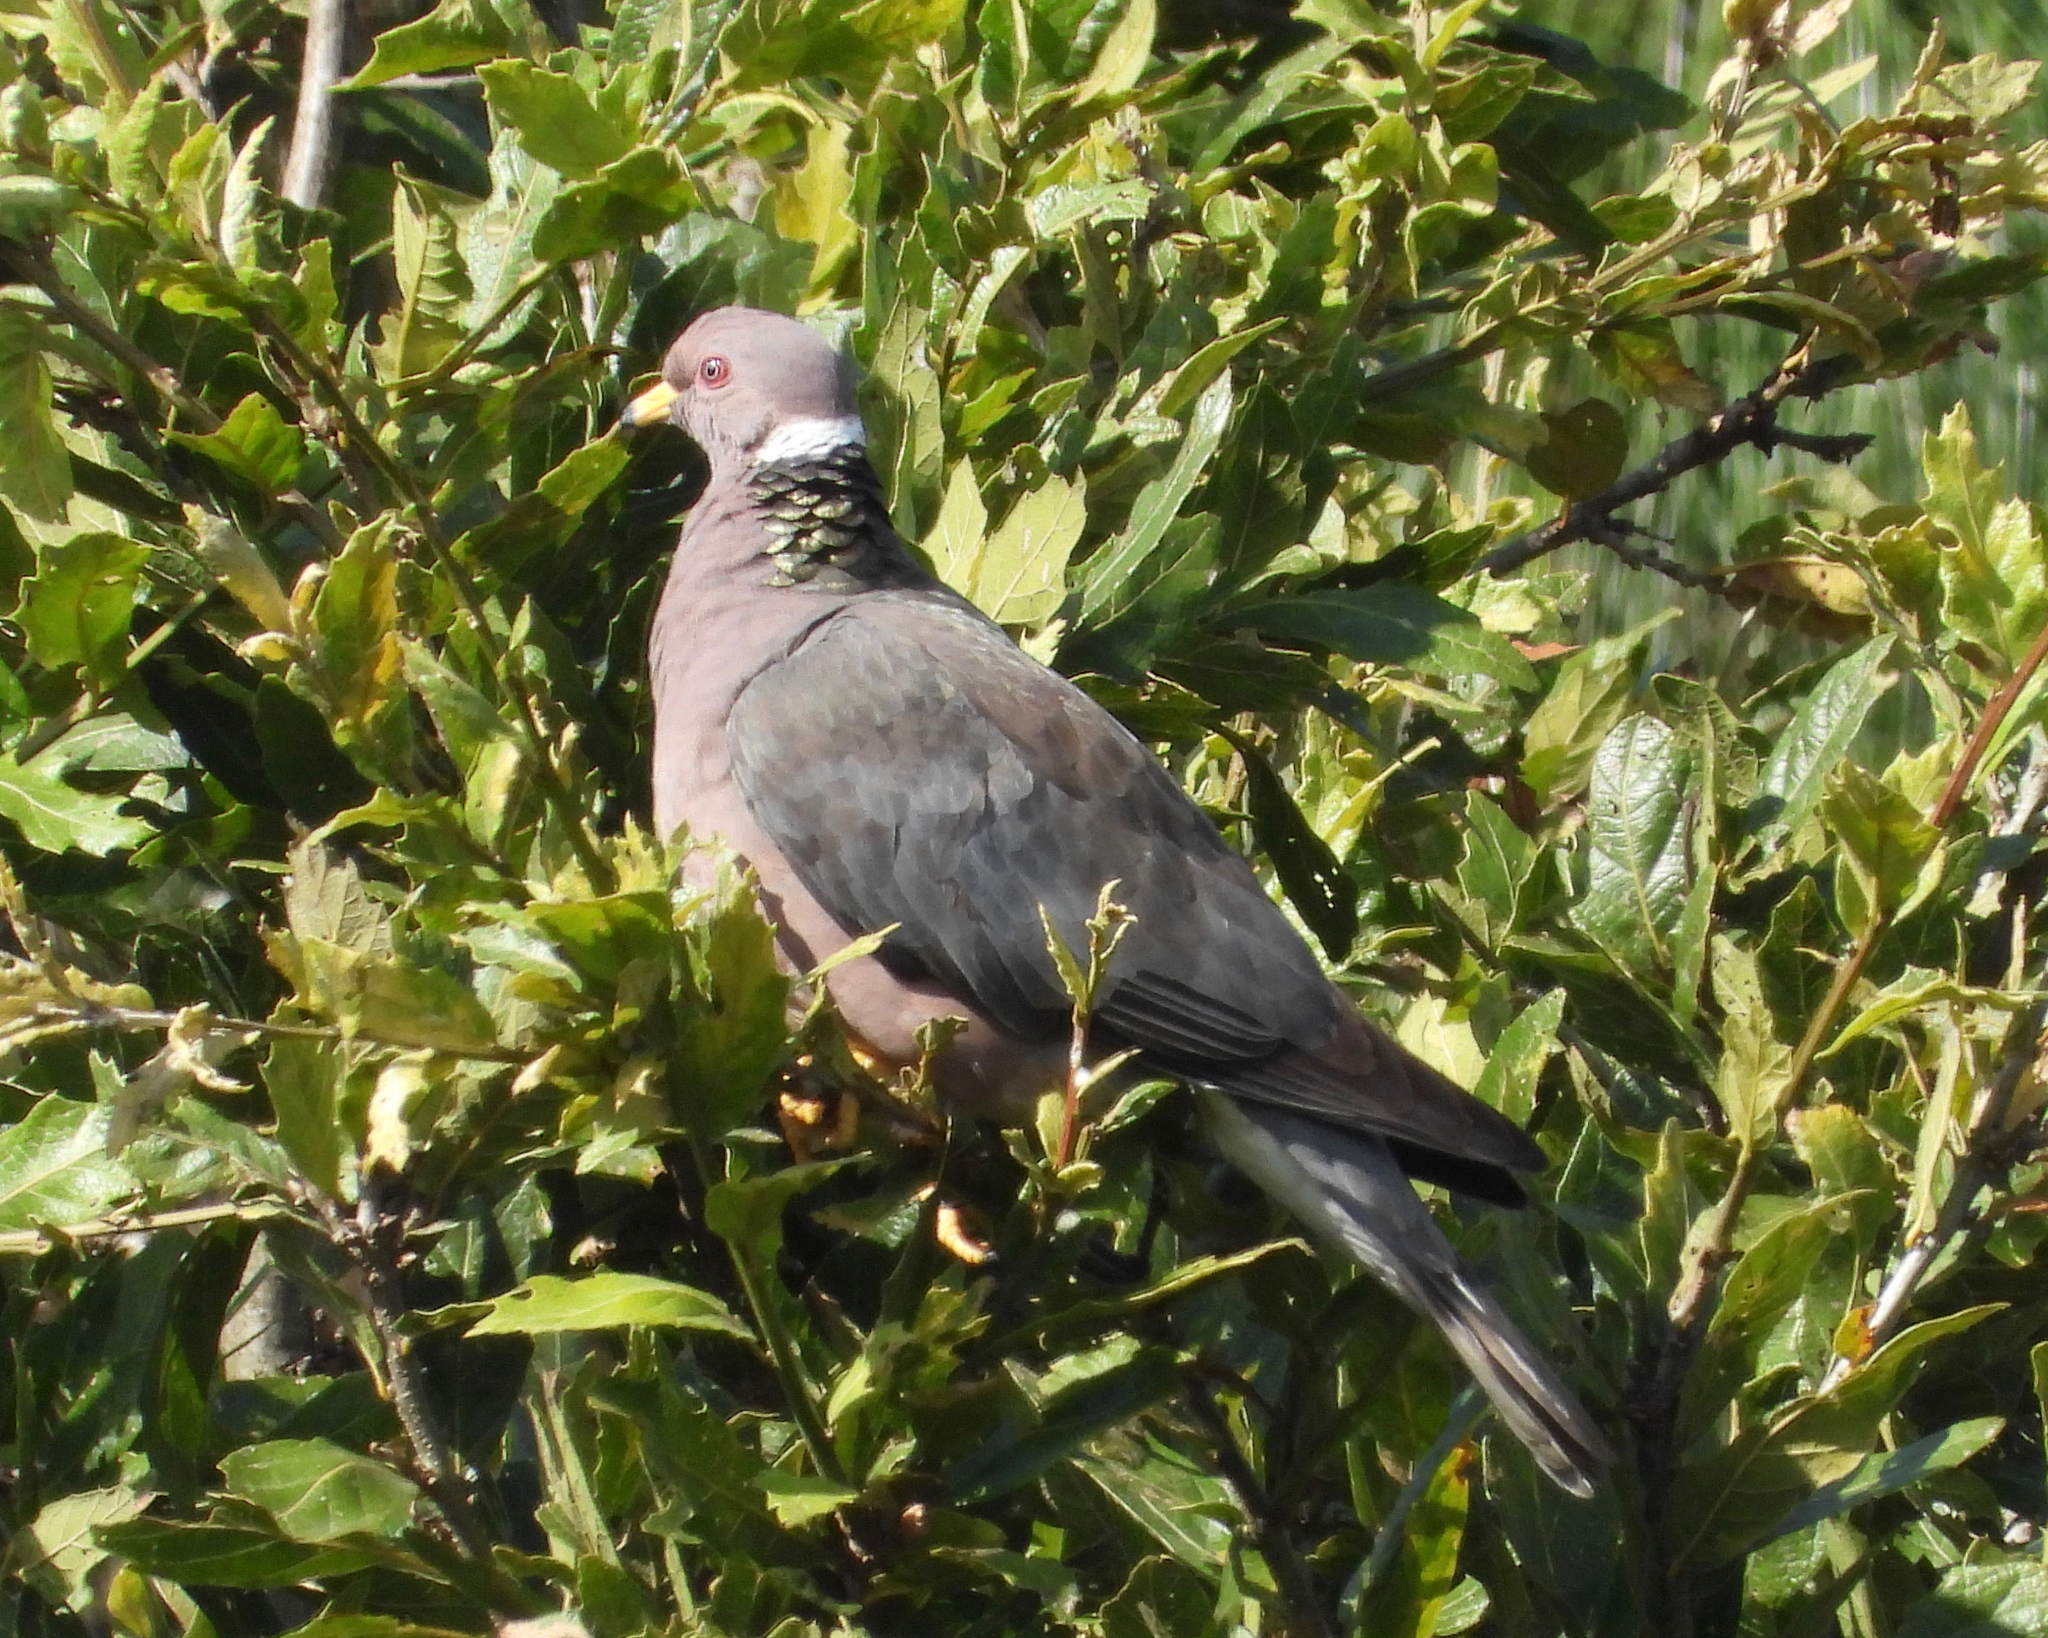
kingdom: Animalia
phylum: Chordata
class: Aves
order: Columbiformes
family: Columbidae
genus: Patagioenas
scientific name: Patagioenas fasciata
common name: Band-tailed pigeon
